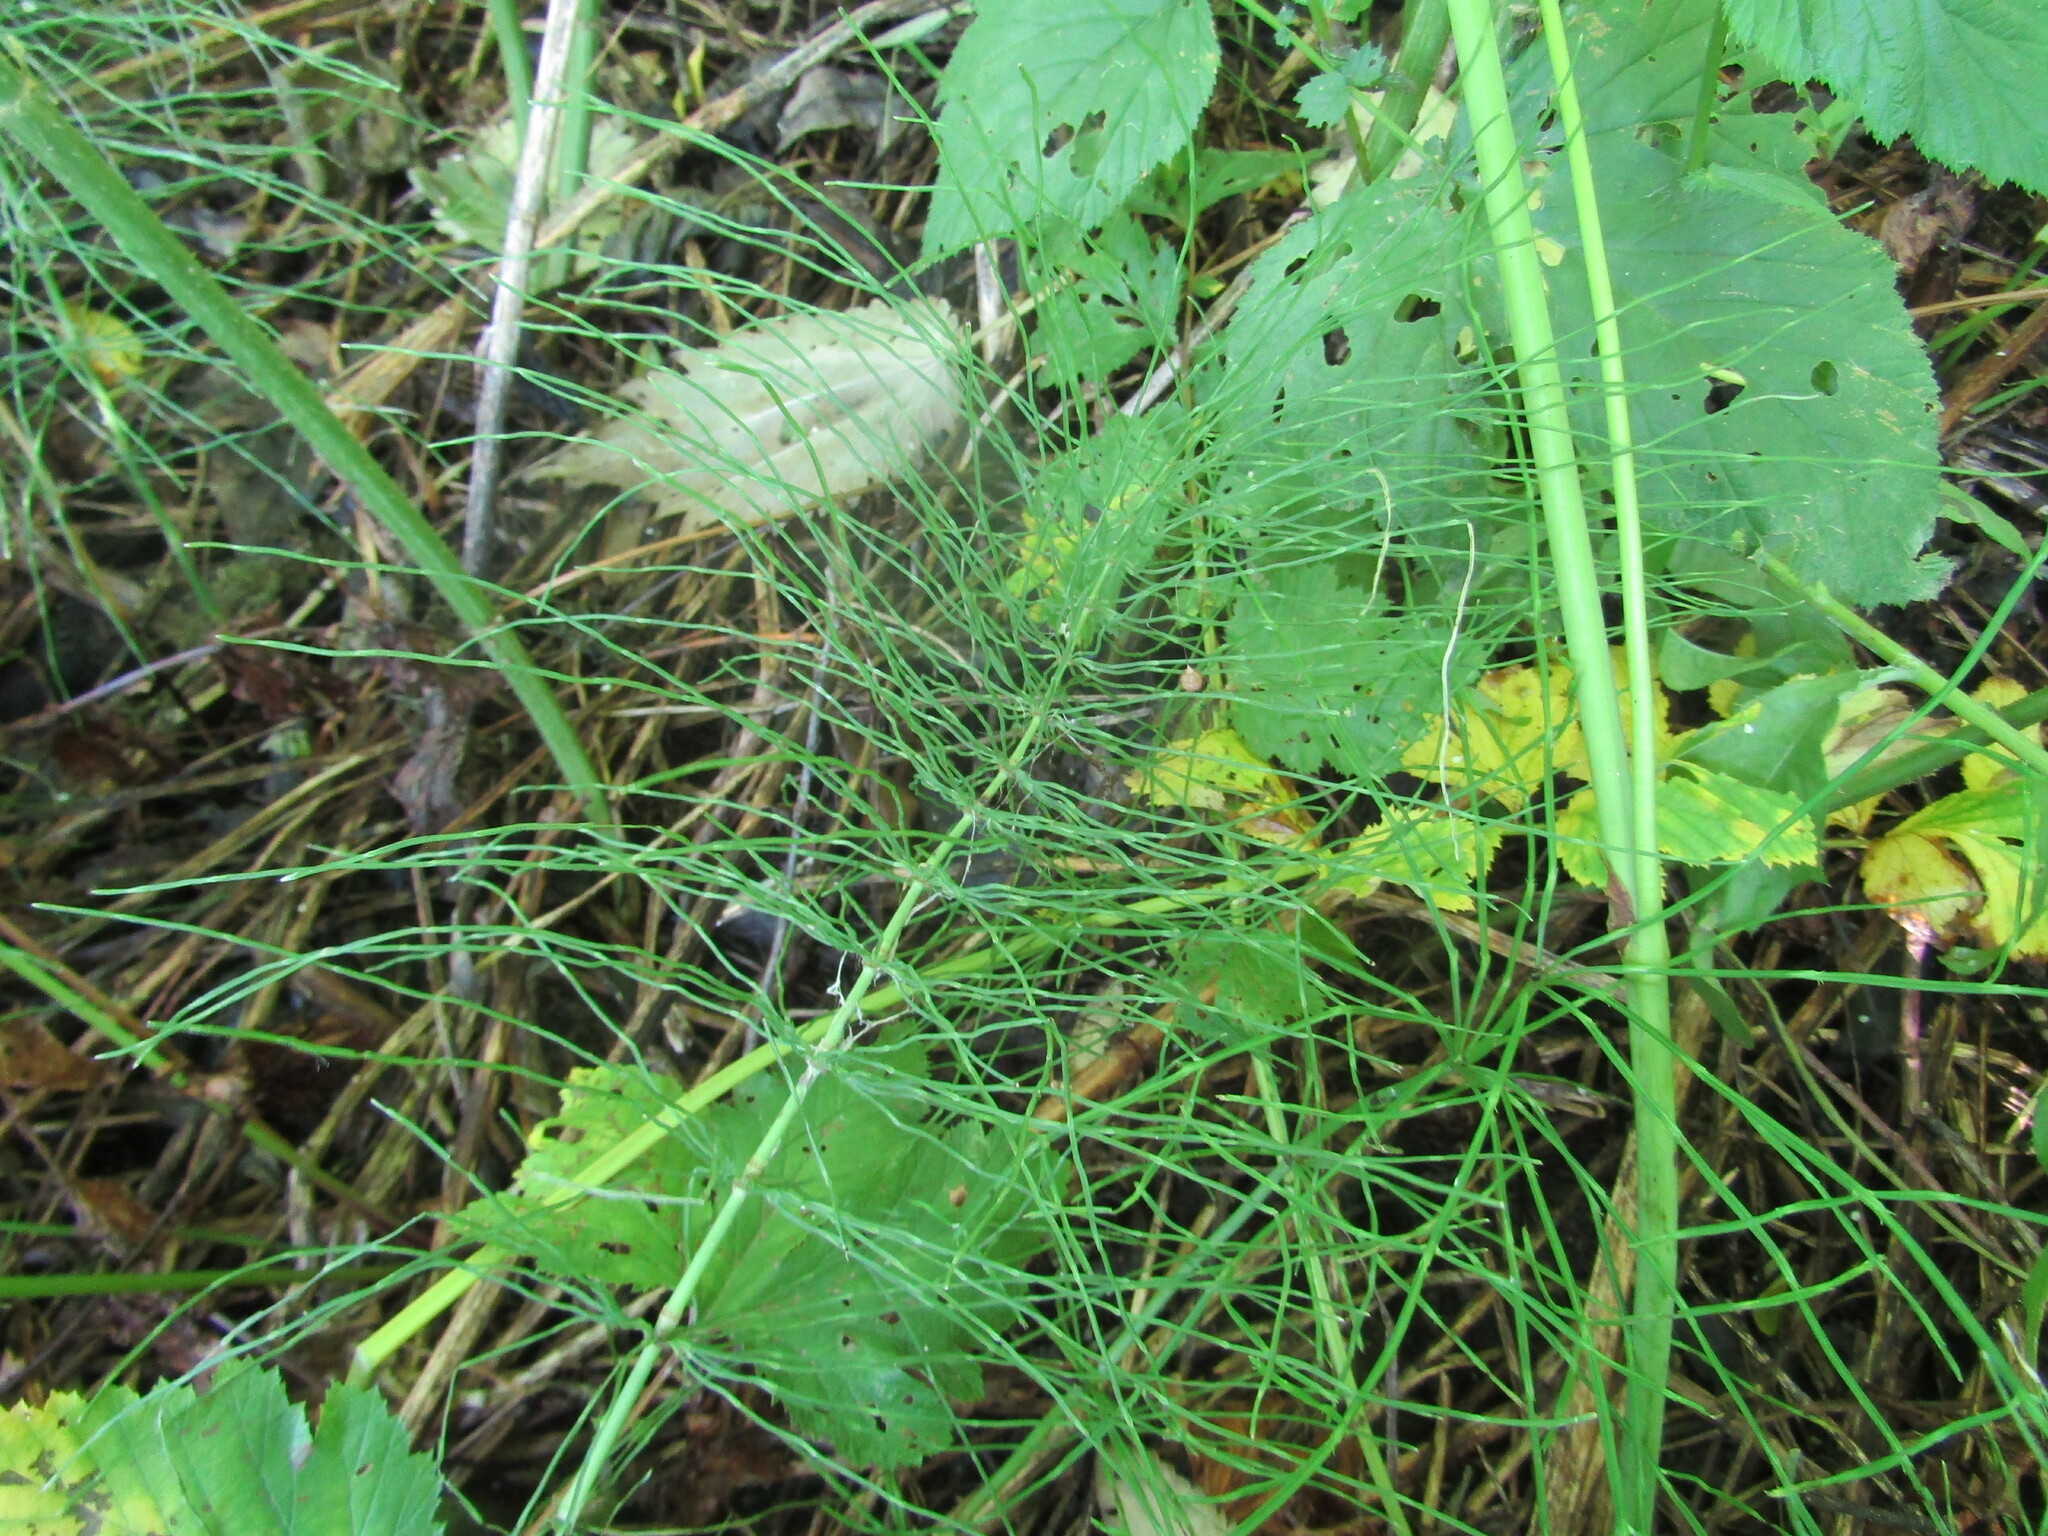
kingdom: Plantae
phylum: Tracheophyta
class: Polypodiopsida
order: Equisetales
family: Equisetaceae
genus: Equisetum
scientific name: Equisetum pratense
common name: Meadow horsetail
